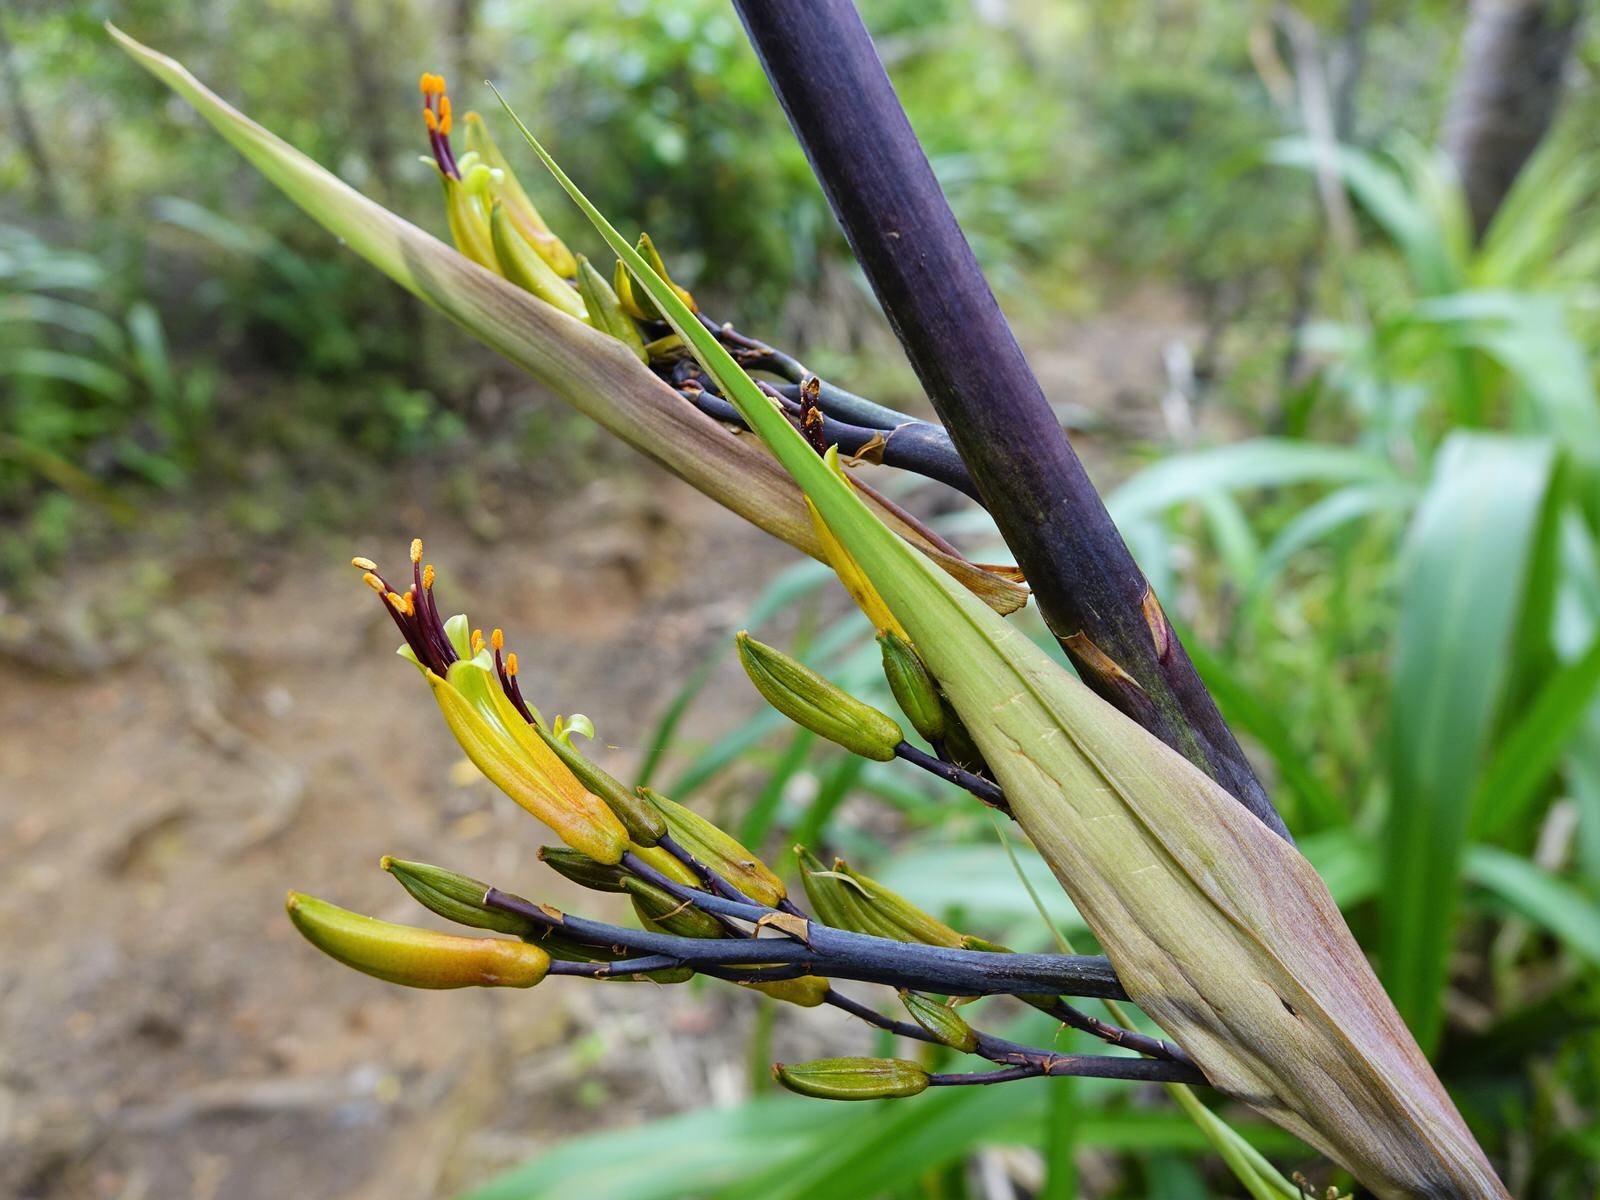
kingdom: Plantae
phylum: Tracheophyta
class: Liliopsida
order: Asparagales
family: Asphodelaceae
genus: Phormium
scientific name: Phormium colensoi
